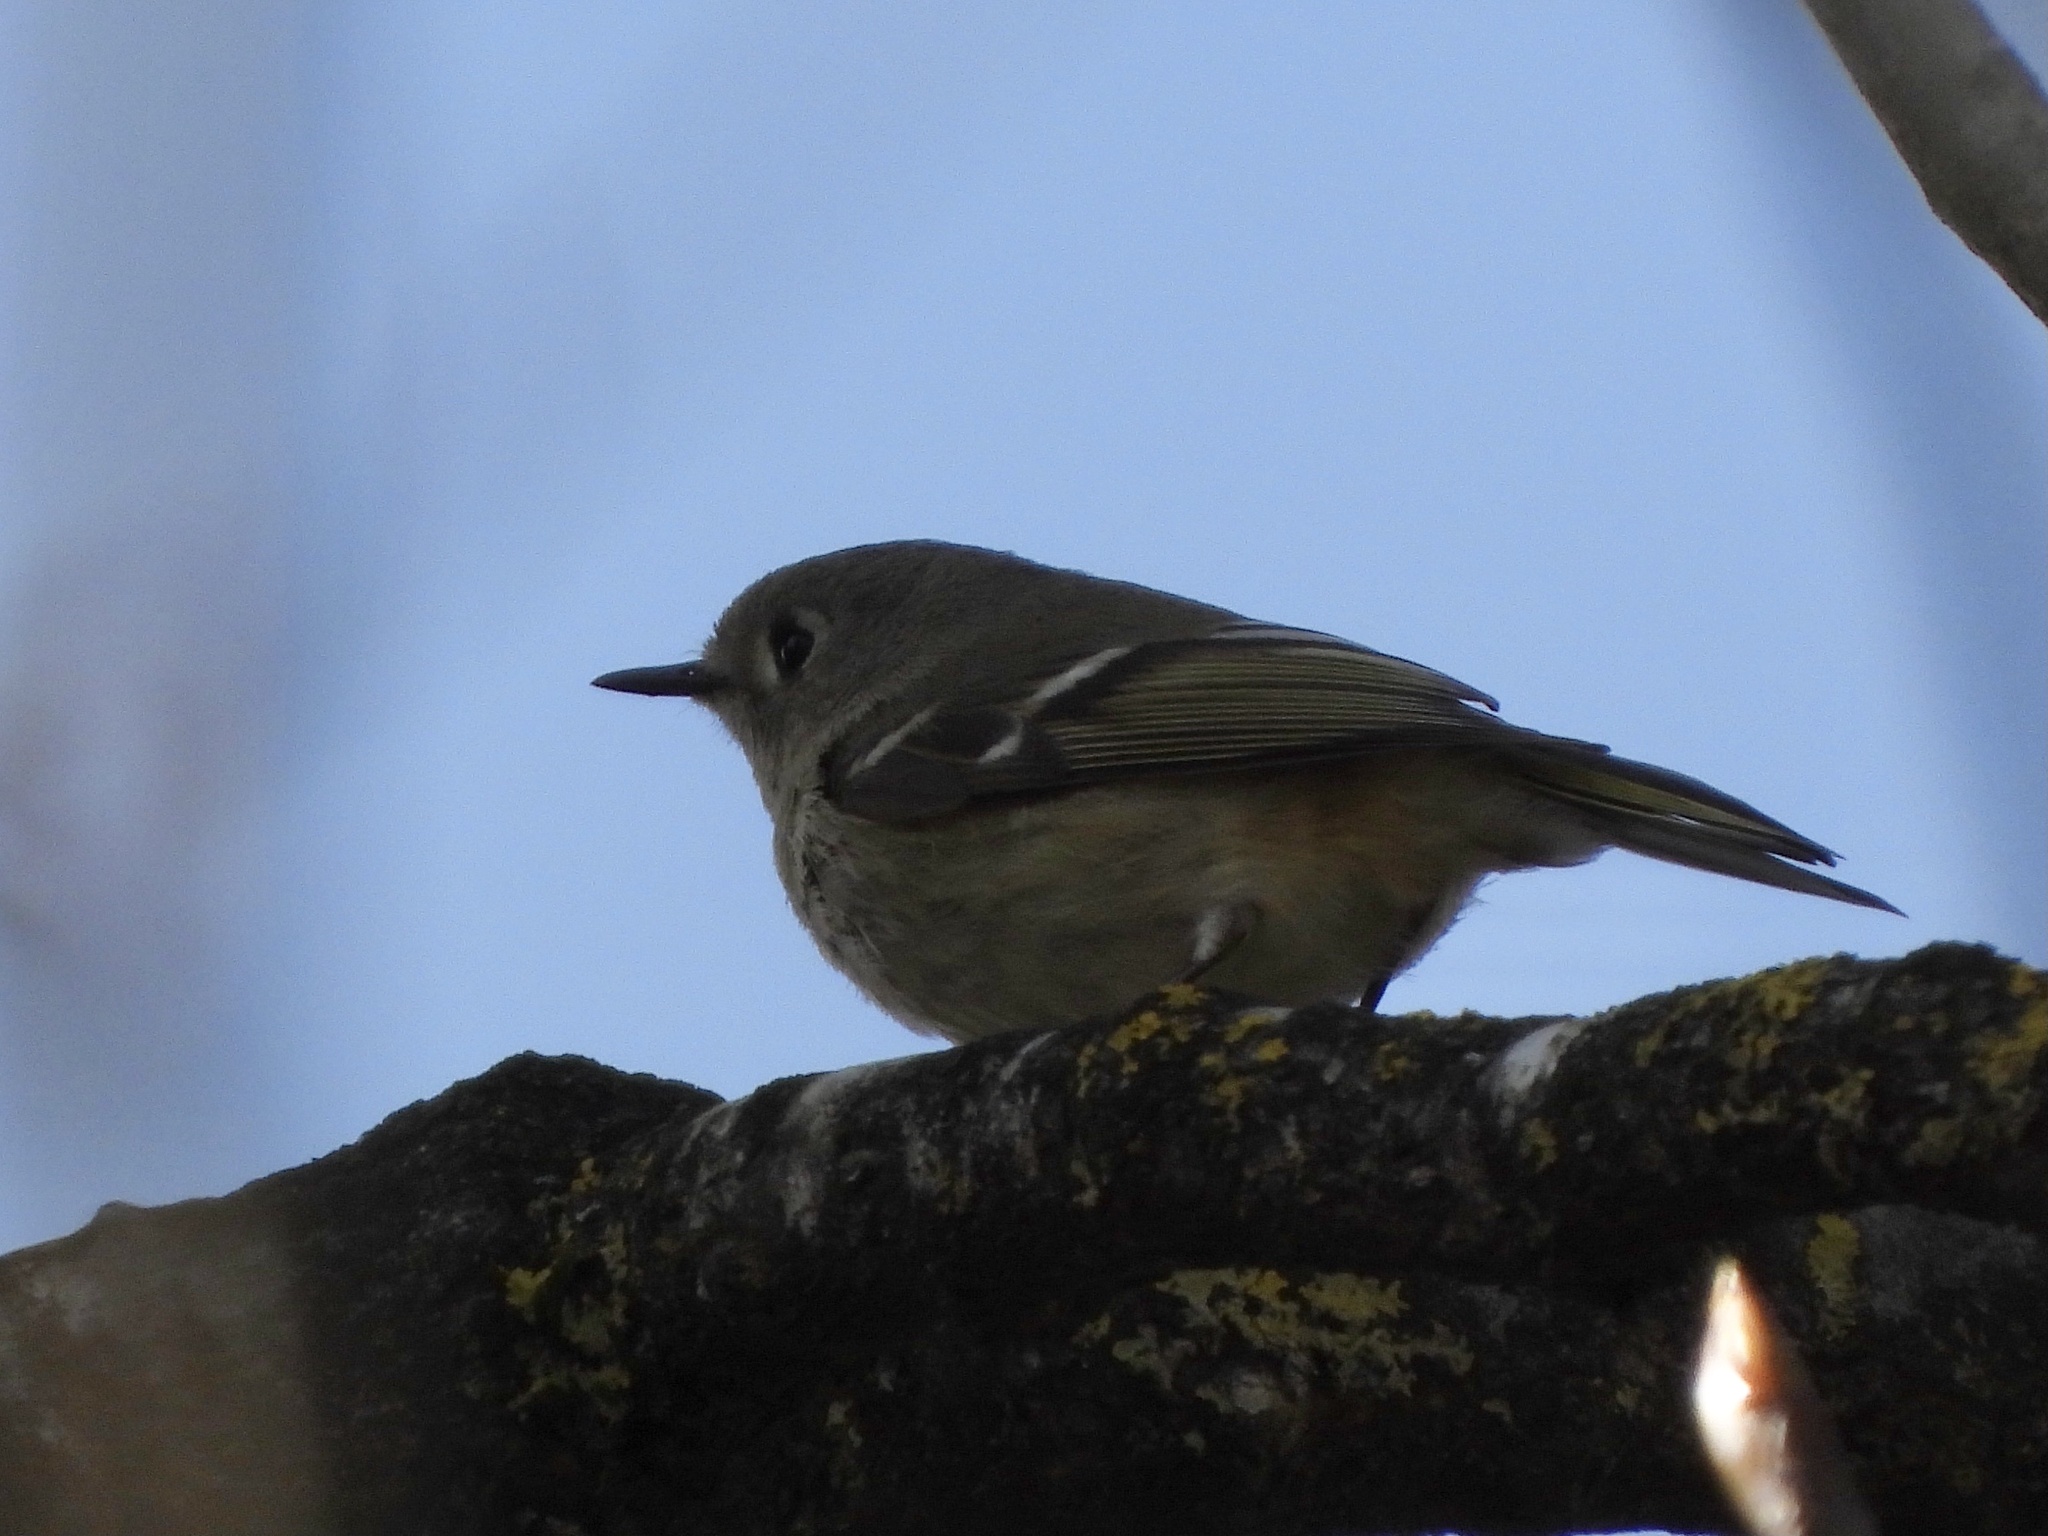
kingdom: Animalia
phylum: Chordata
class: Aves
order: Passeriformes
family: Regulidae
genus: Regulus
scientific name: Regulus calendula
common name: Ruby-crowned kinglet
